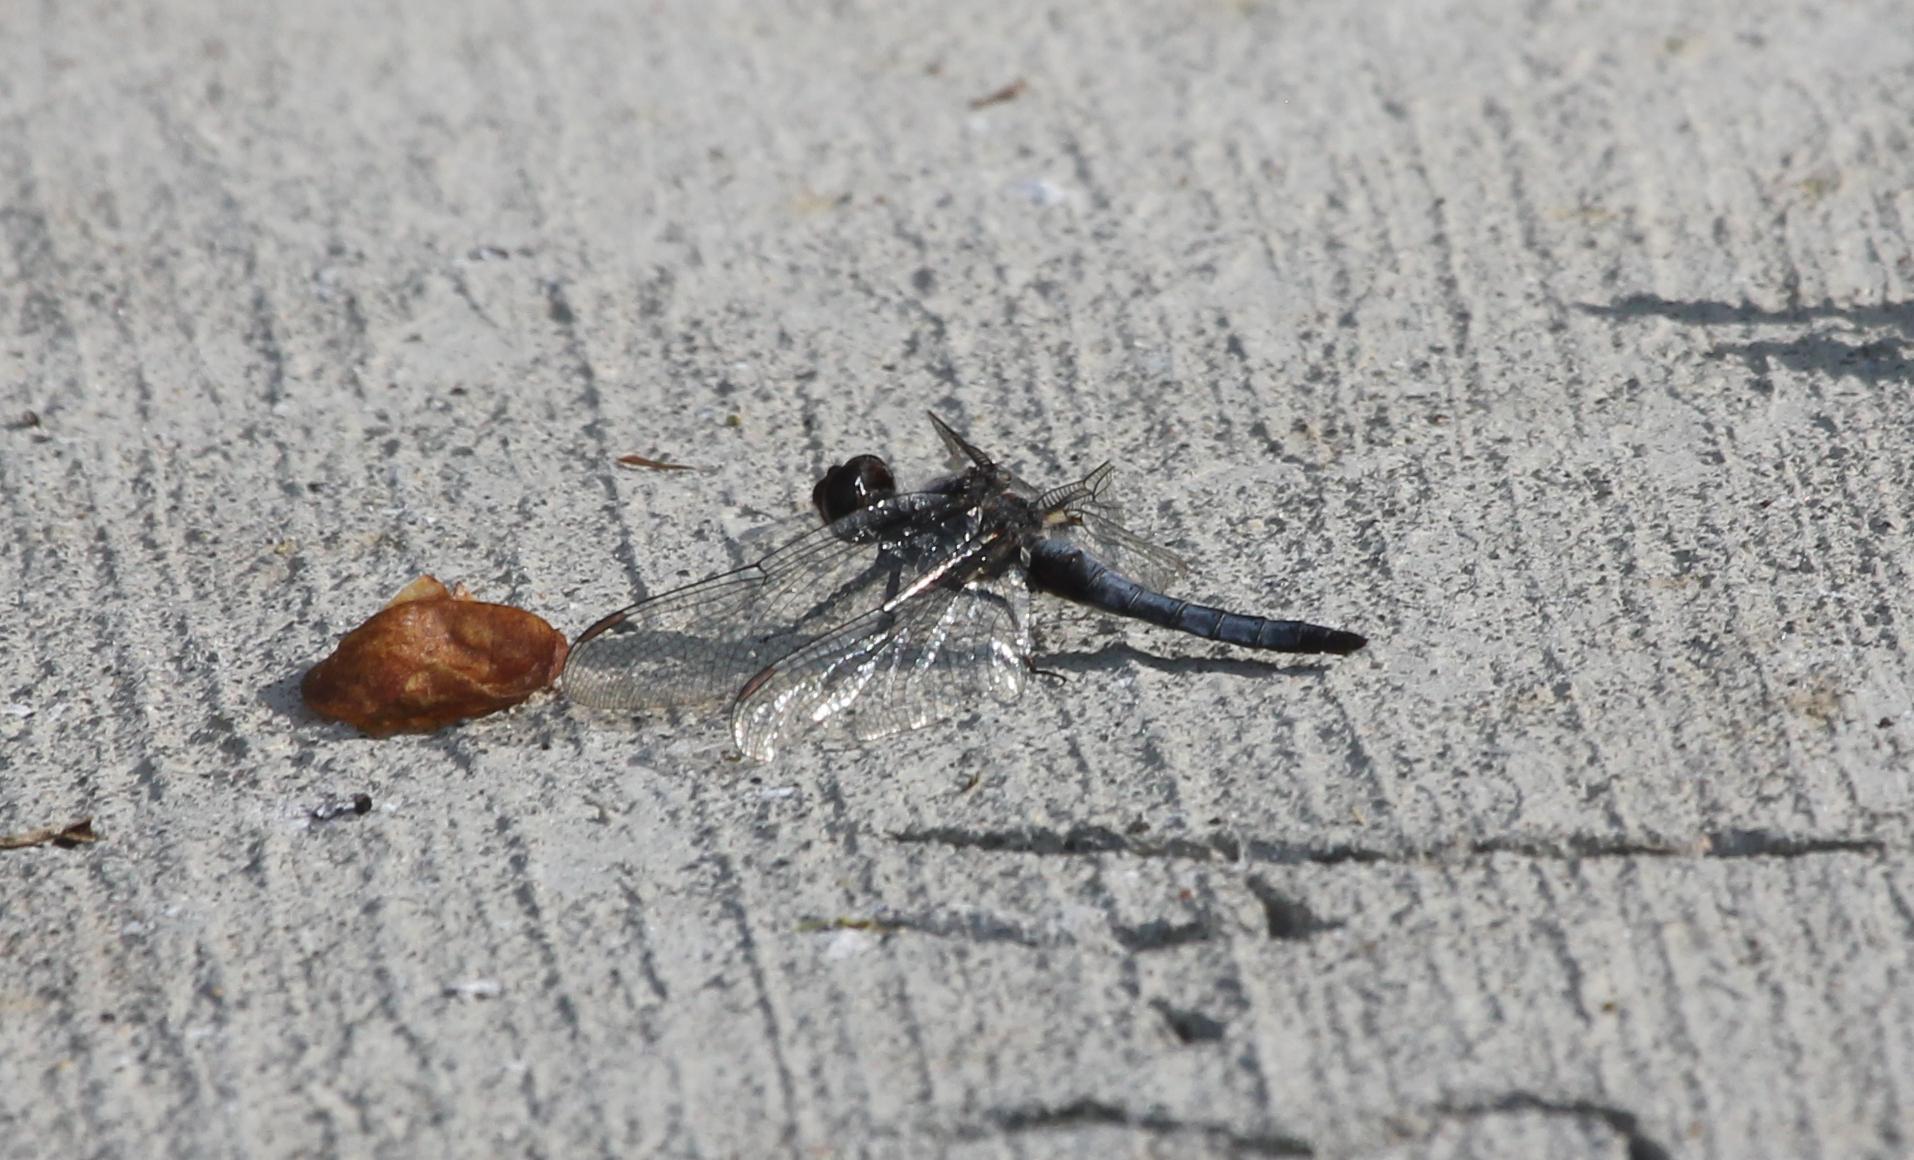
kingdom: Animalia
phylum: Arthropoda
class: Insecta
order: Odonata
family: Libellulidae
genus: Ladona
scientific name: Ladona deplanata
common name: Blue corporal
